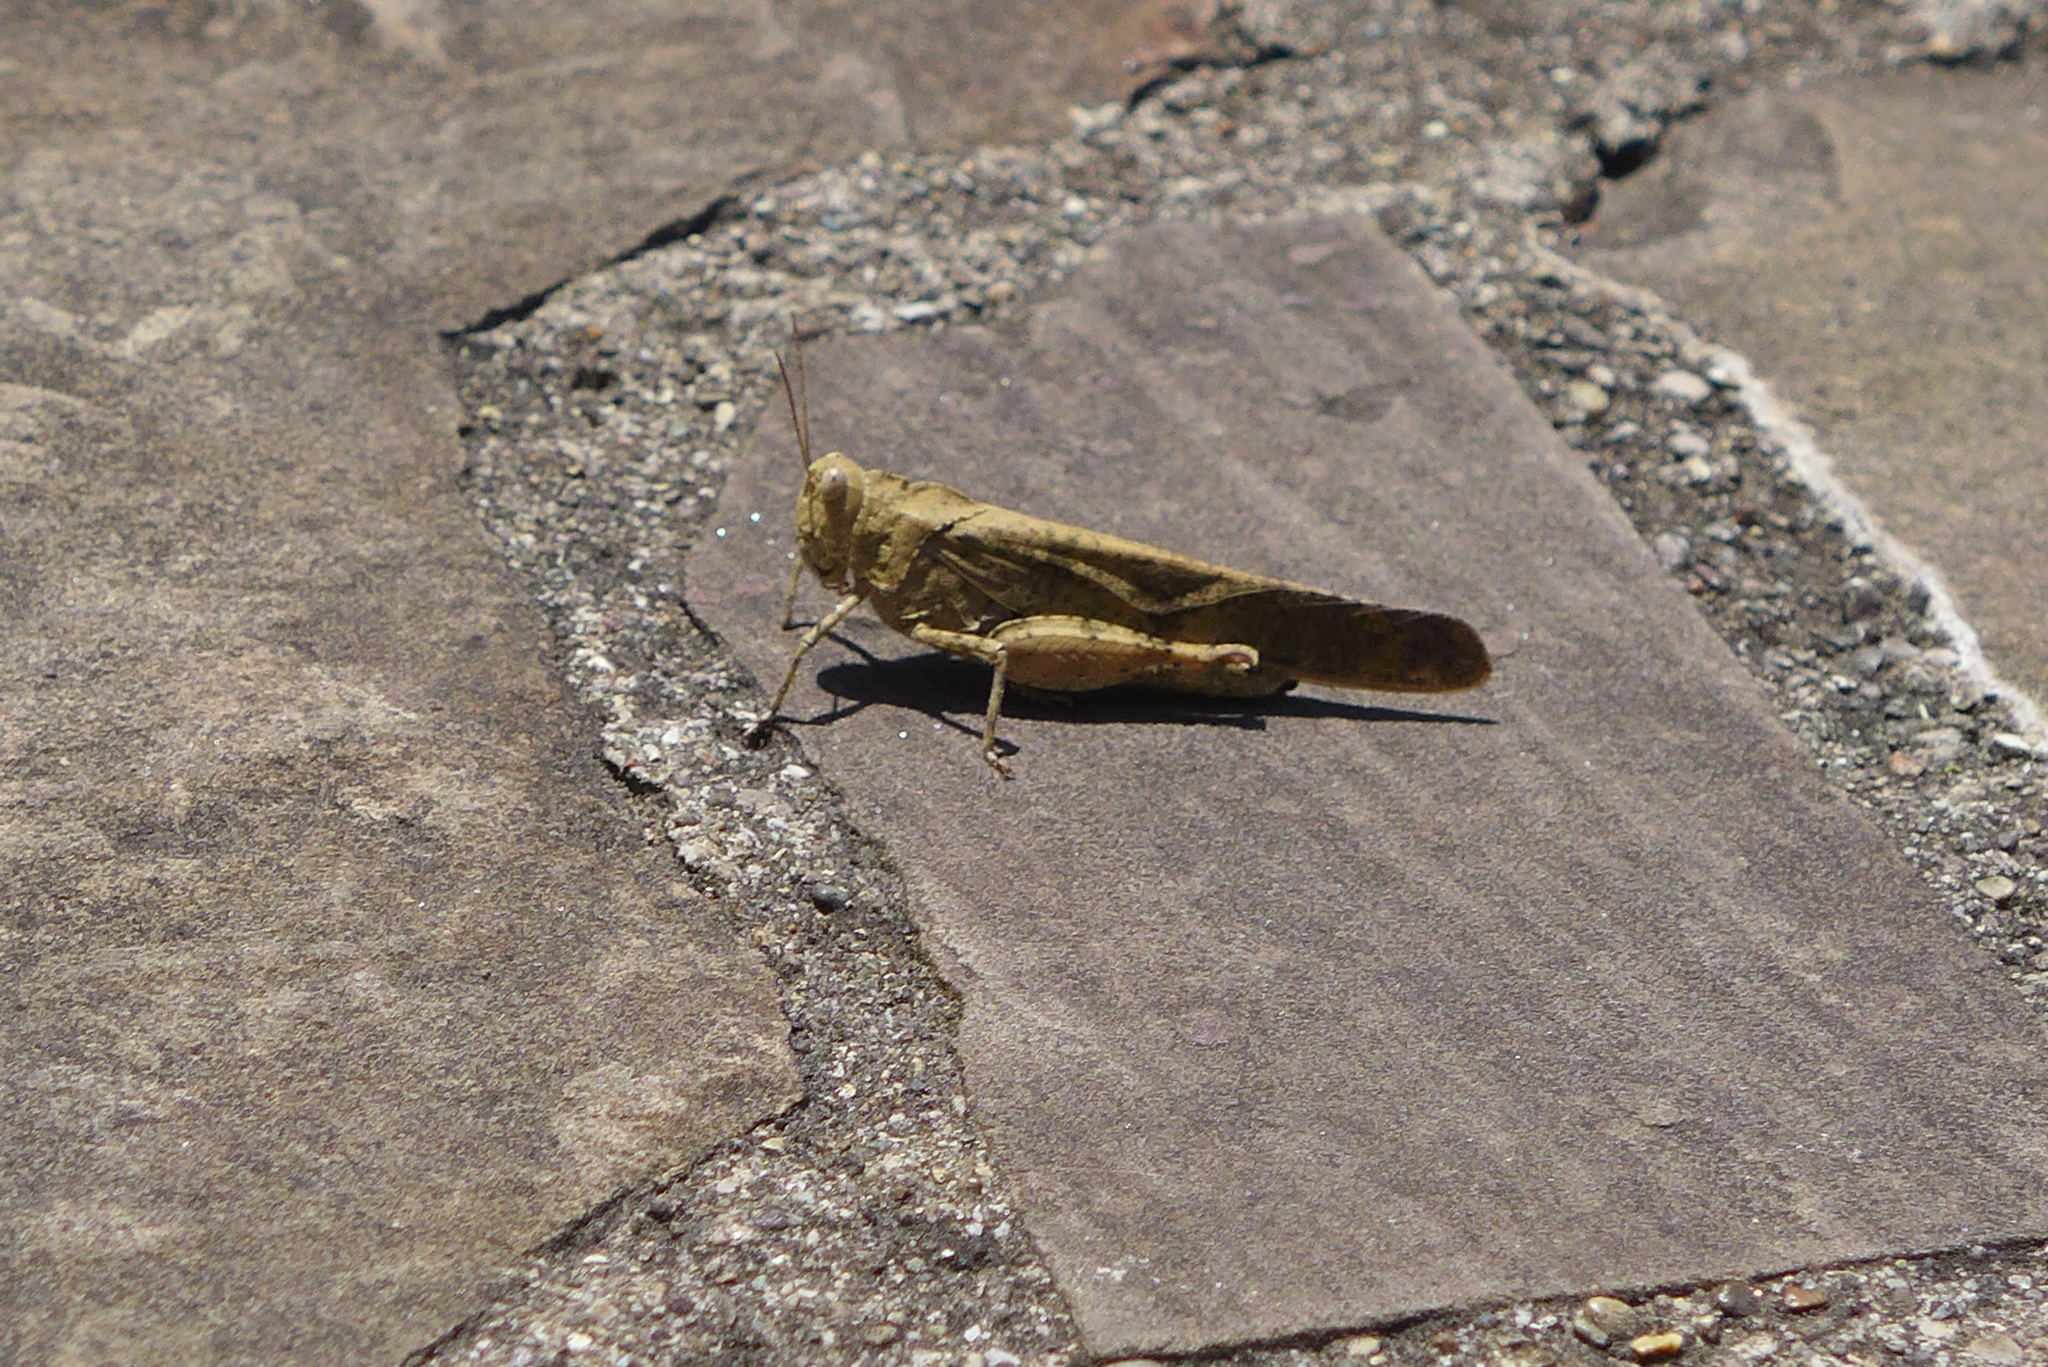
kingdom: Animalia
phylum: Arthropoda
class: Insecta
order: Orthoptera
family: Acrididae
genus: Dissosteira
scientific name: Dissosteira carolina
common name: Carolina grasshopper
